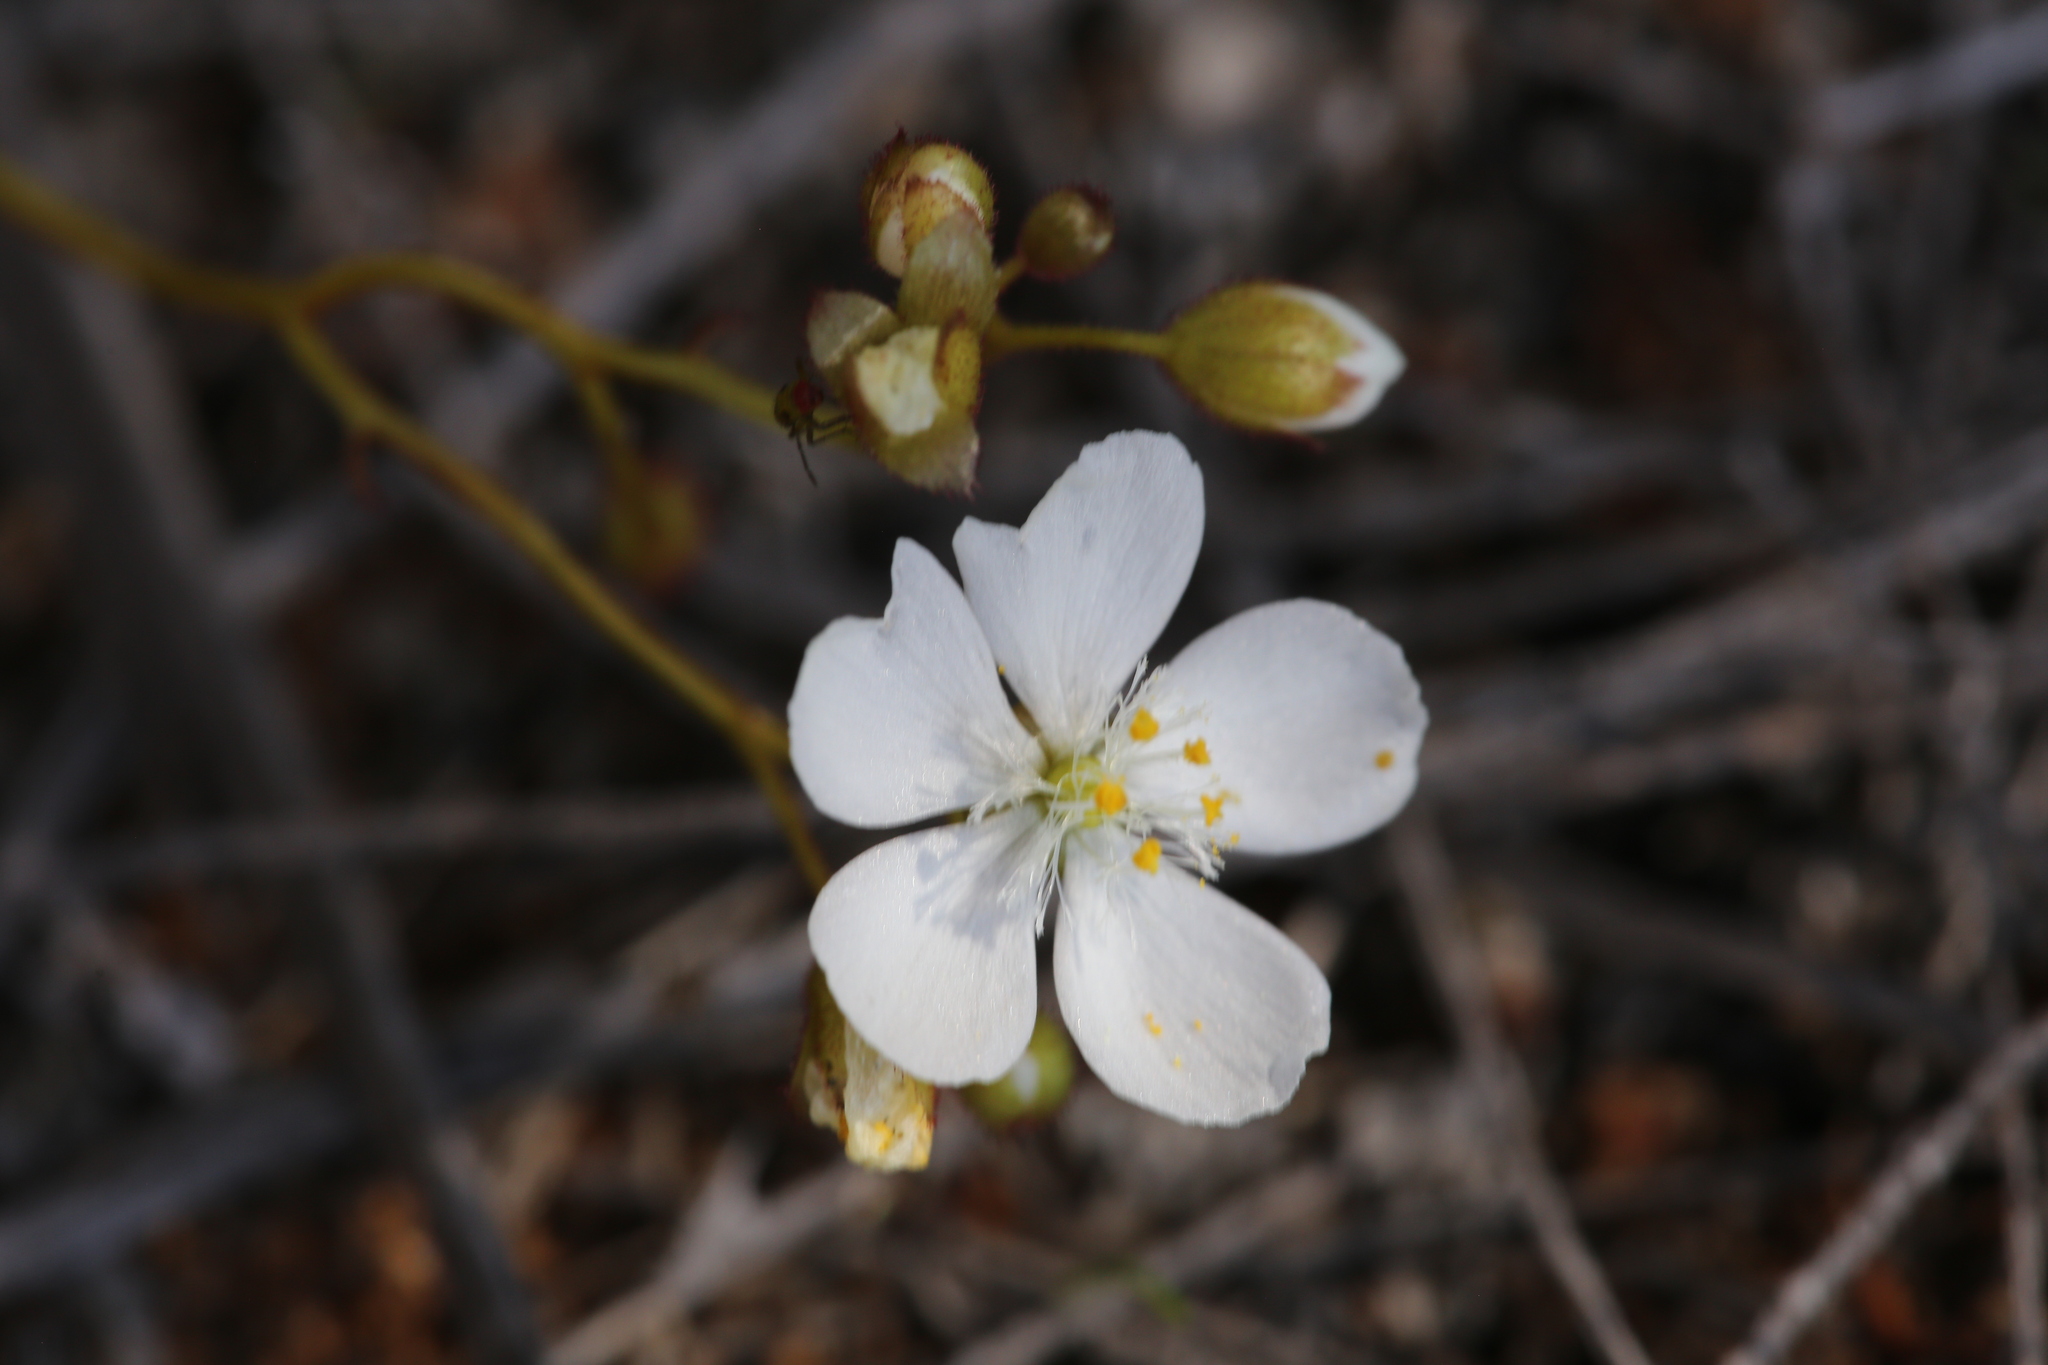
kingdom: Plantae
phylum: Tracheophyta
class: Magnoliopsida
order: Caryophyllales
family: Droseraceae
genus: Drosera
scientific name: Drosera macrantha
